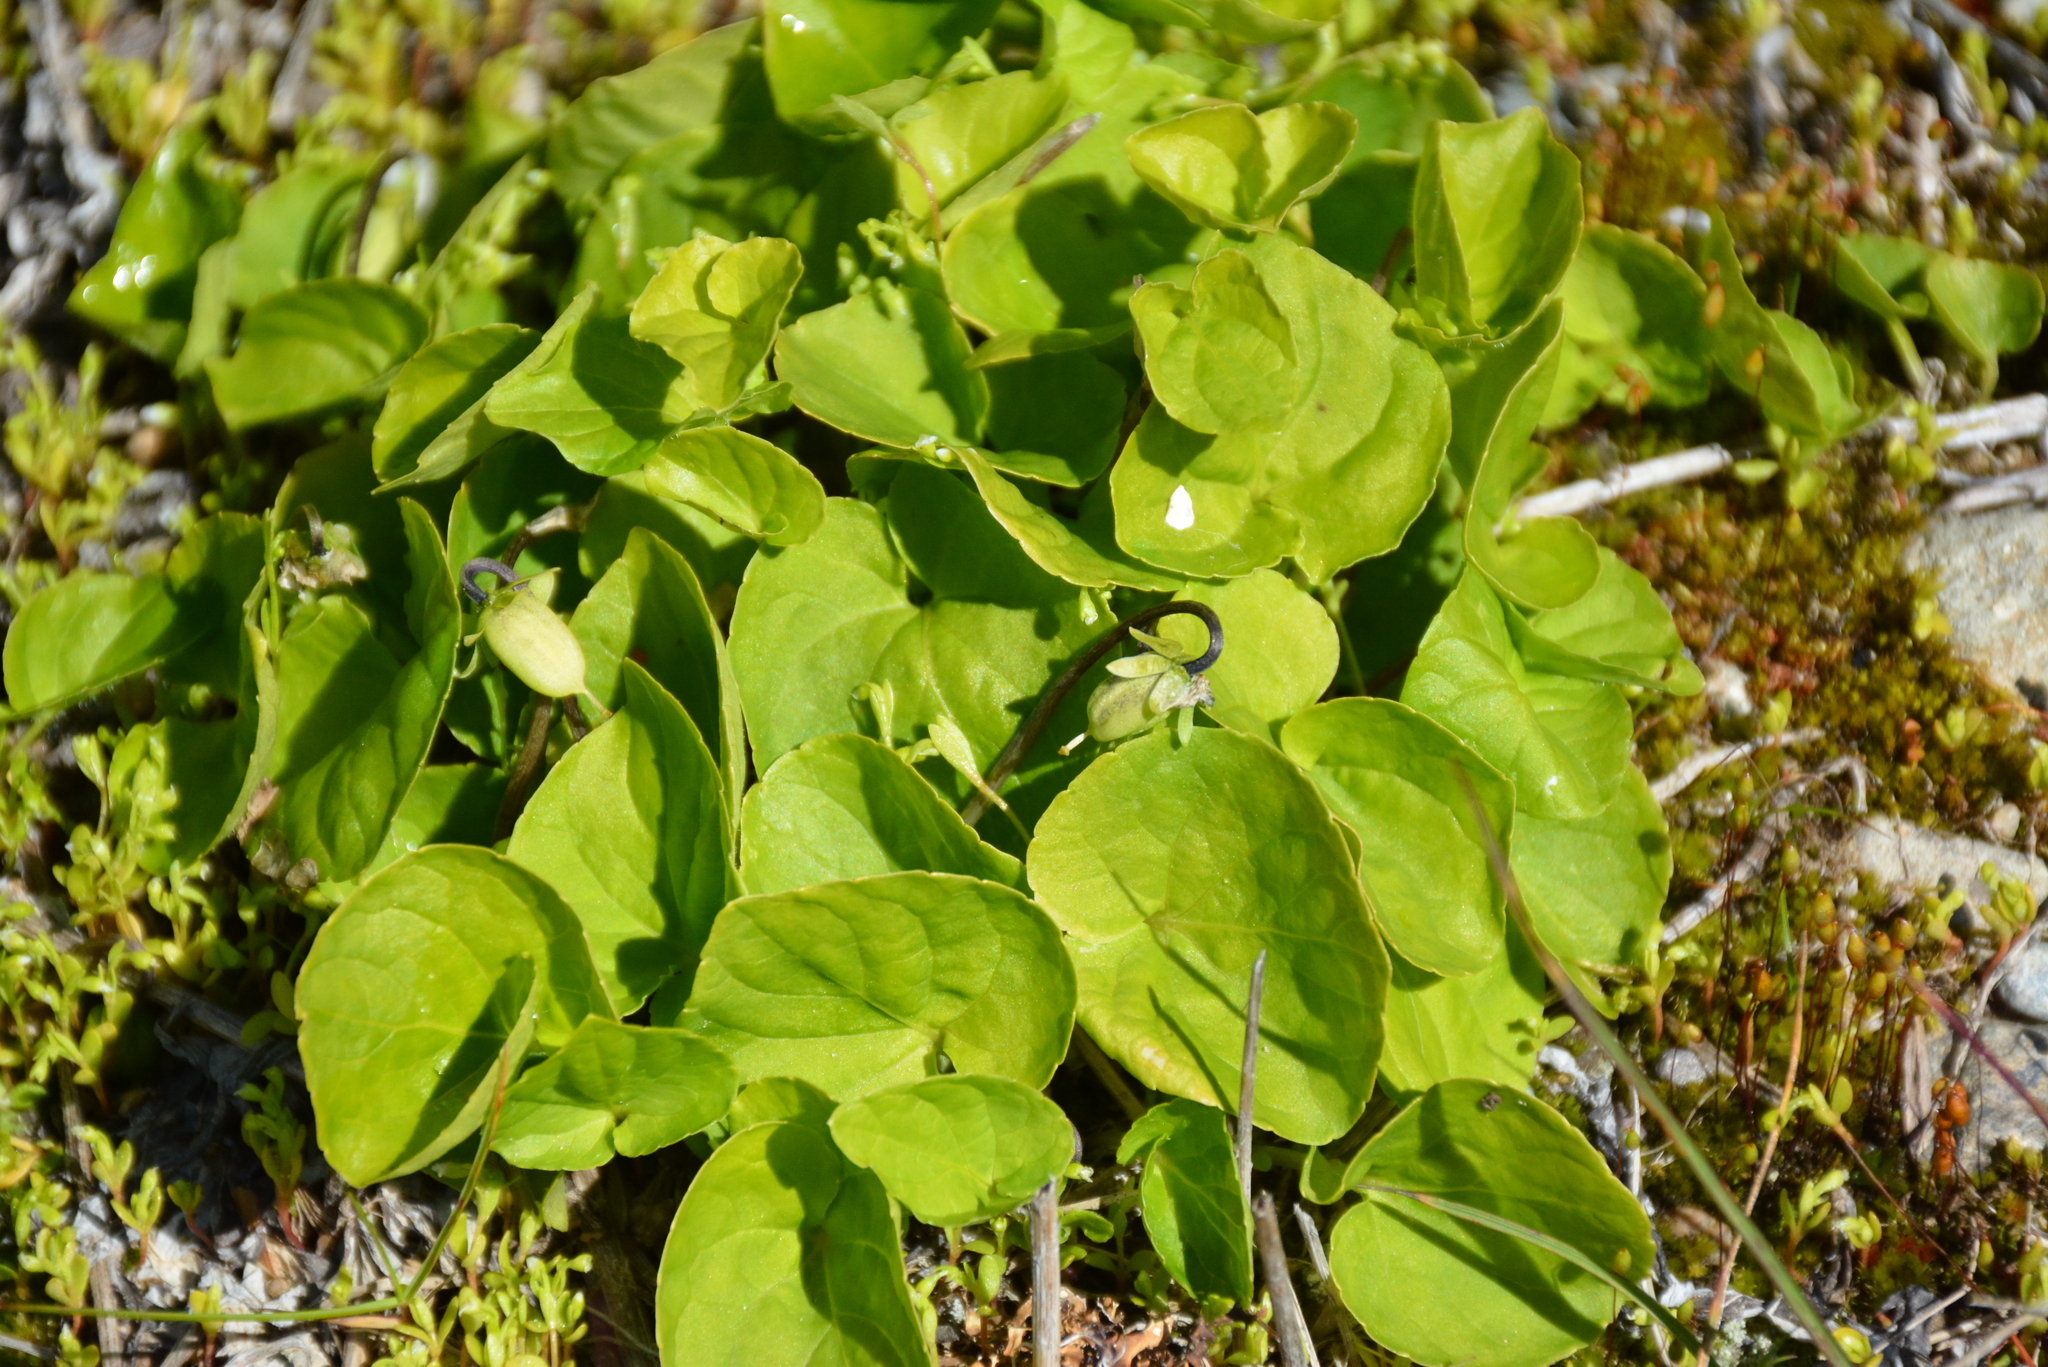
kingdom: Plantae
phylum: Tracheophyta
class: Magnoliopsida
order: Malpighiales
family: Violaceae
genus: Viola
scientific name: Viola epipsila
